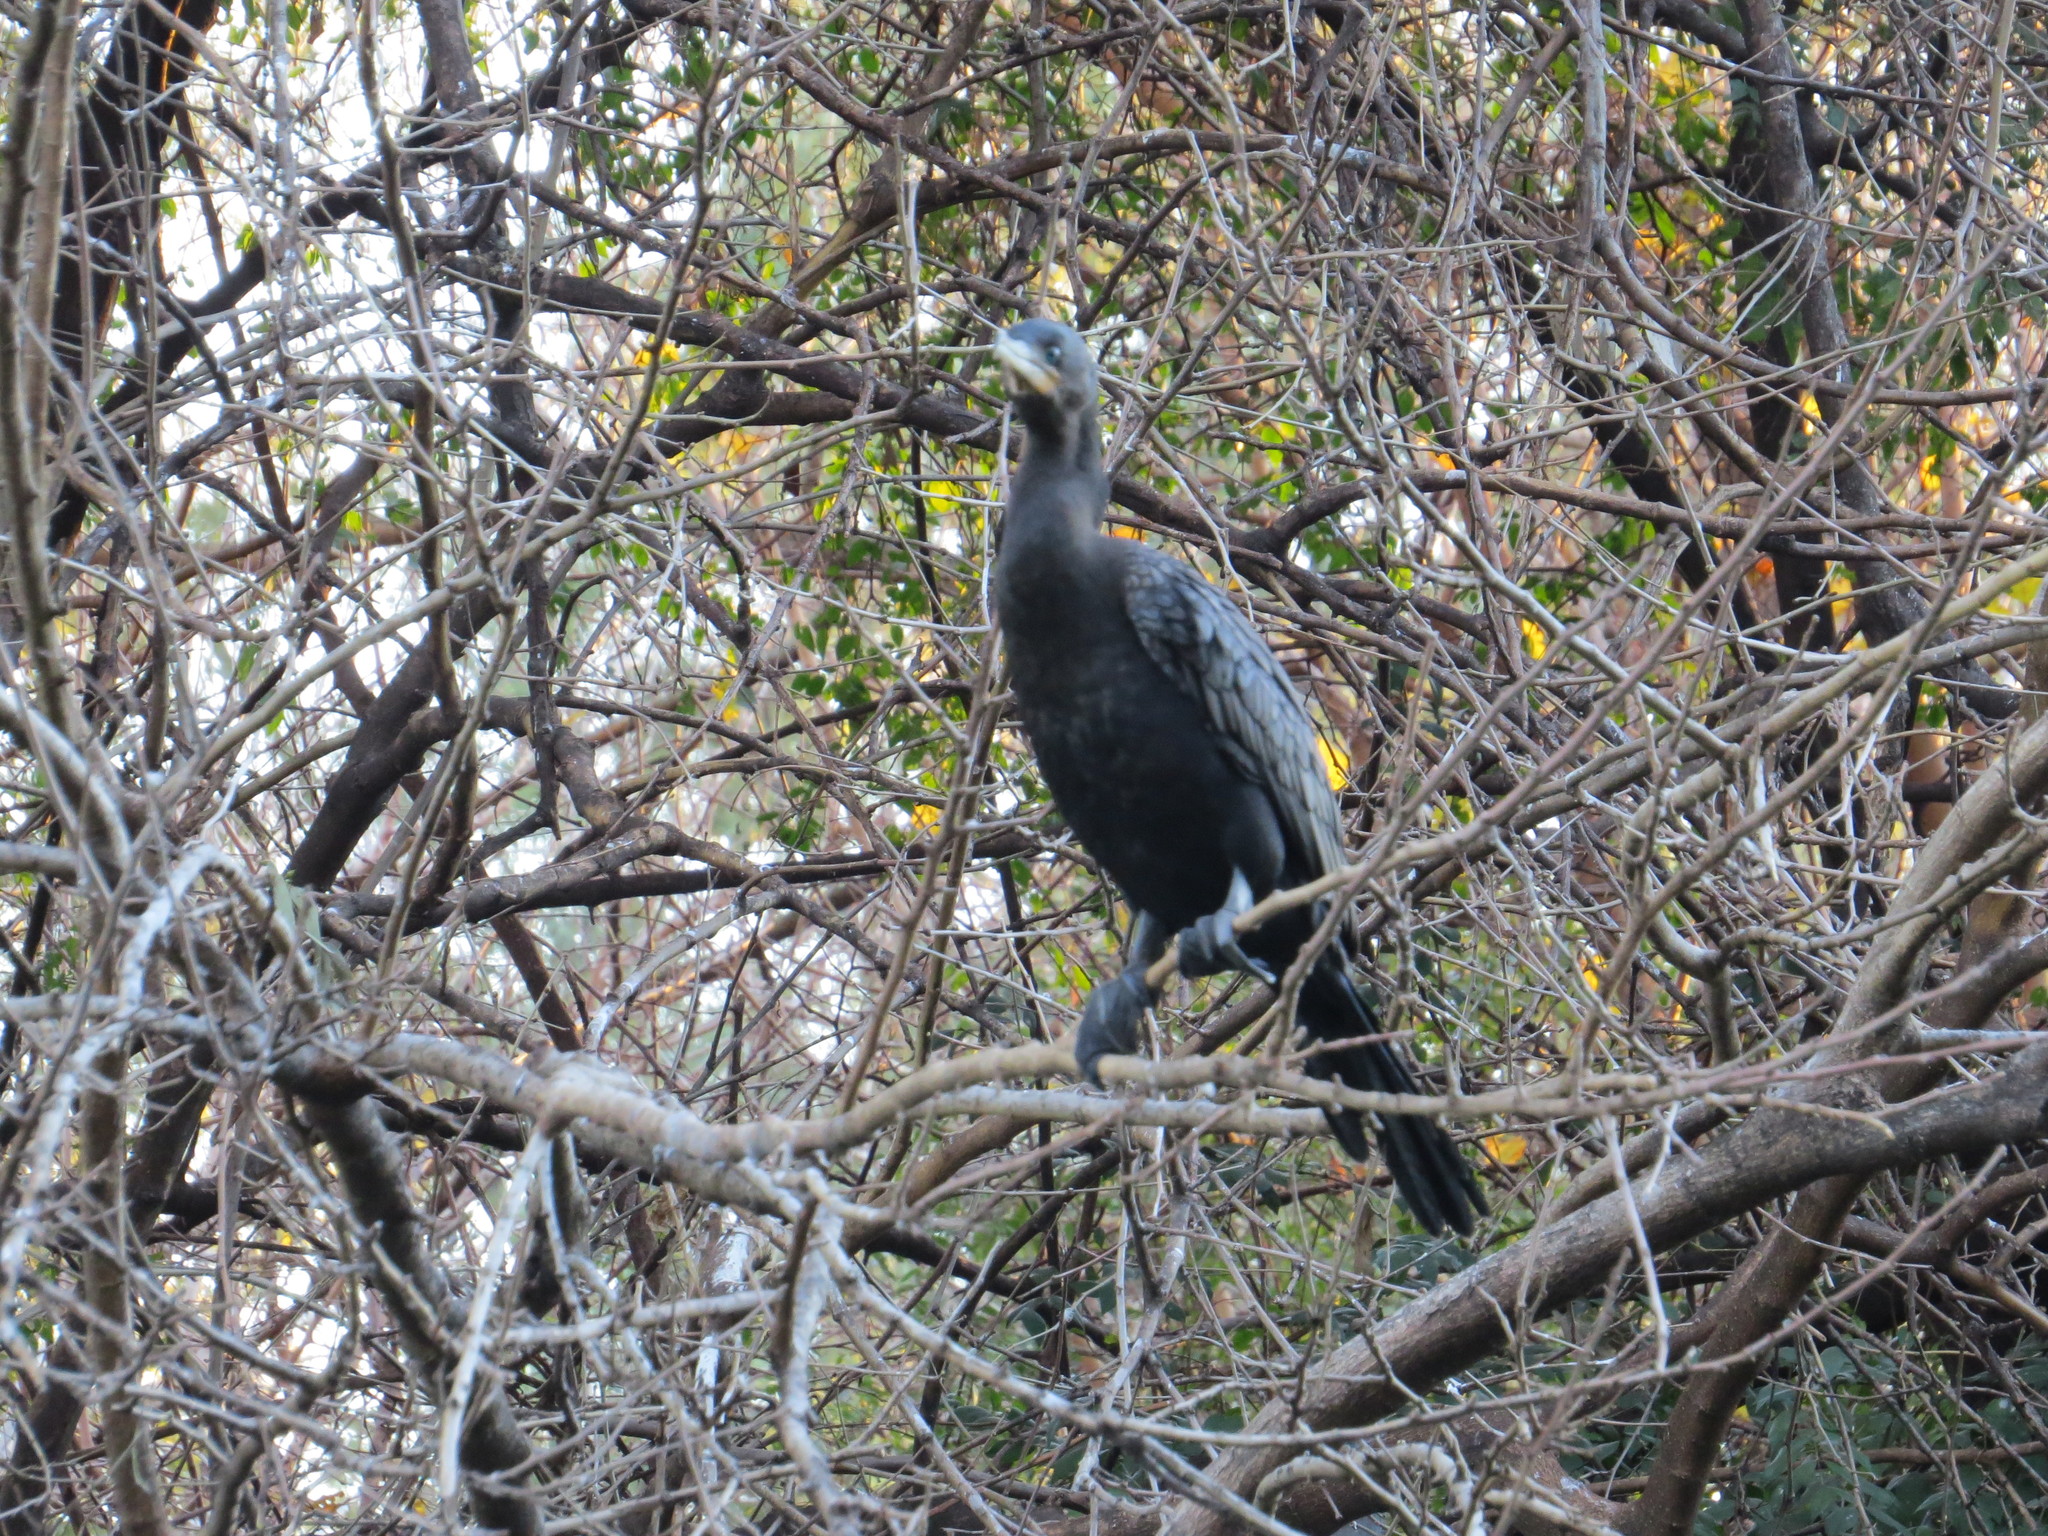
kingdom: Animalia
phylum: Chordata
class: Aves
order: Suliformes
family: Phalacrocoracidae
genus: Phalacrocorax
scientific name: Phalacrocorax brasilianus
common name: Neotropic cormorant
